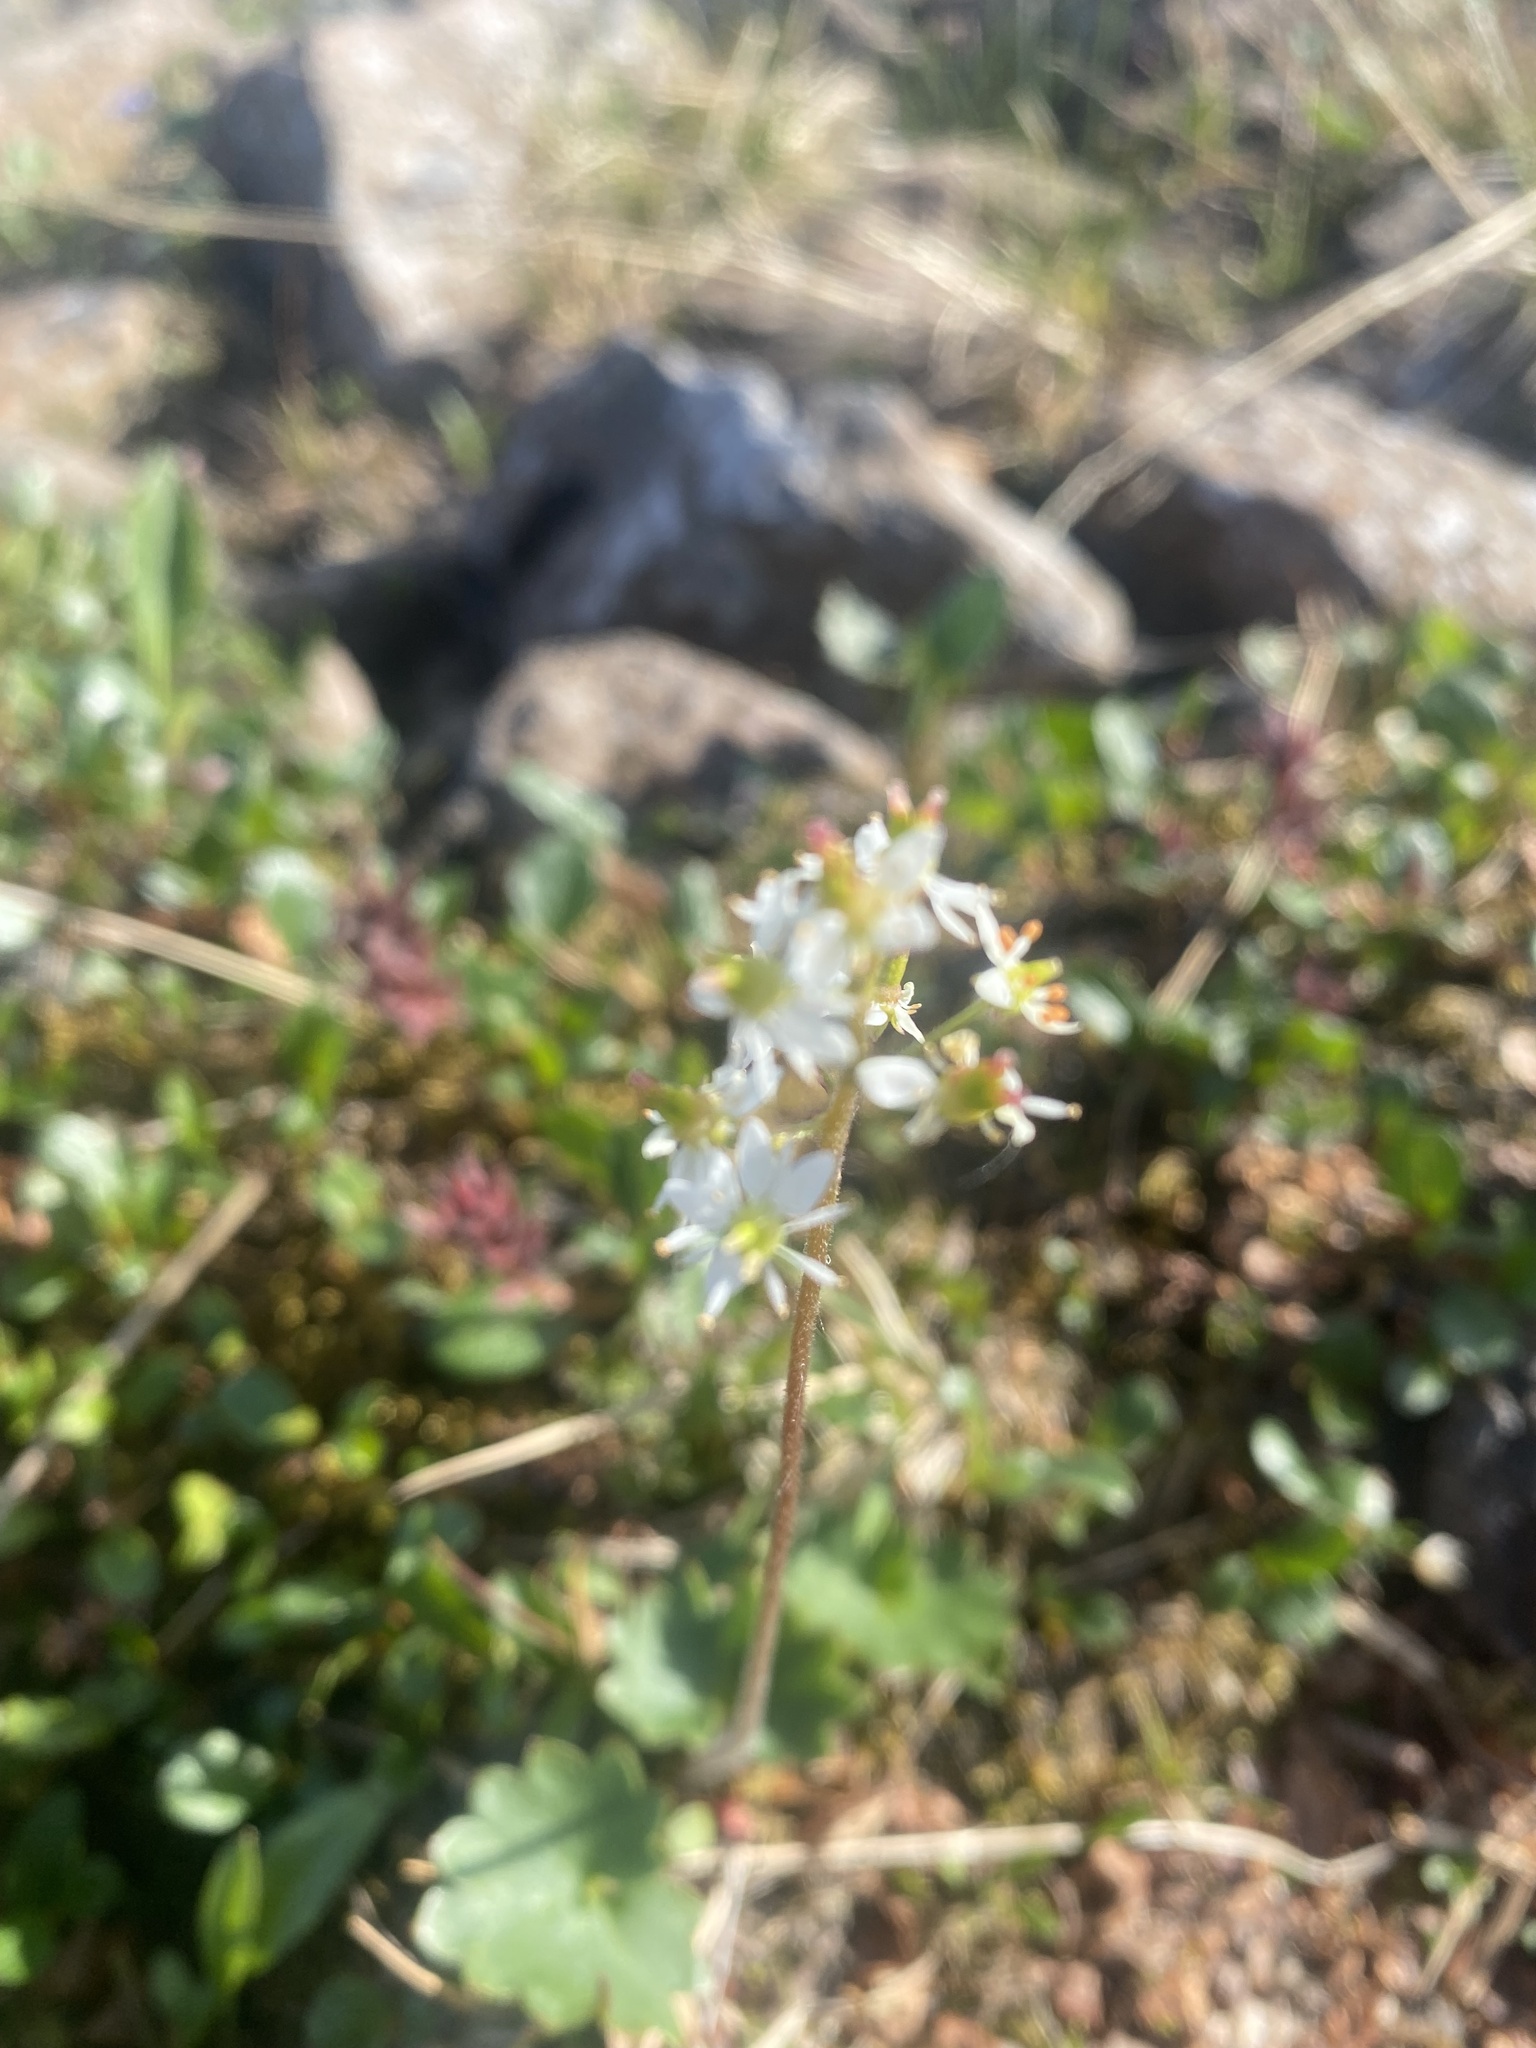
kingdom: Plantae
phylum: Tracheophyta
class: Magnoliopsida
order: Saxifragales
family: Saxifragaceae
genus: Micranthes
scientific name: Micranthes nelsoniana
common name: Nelson's saxifrage
